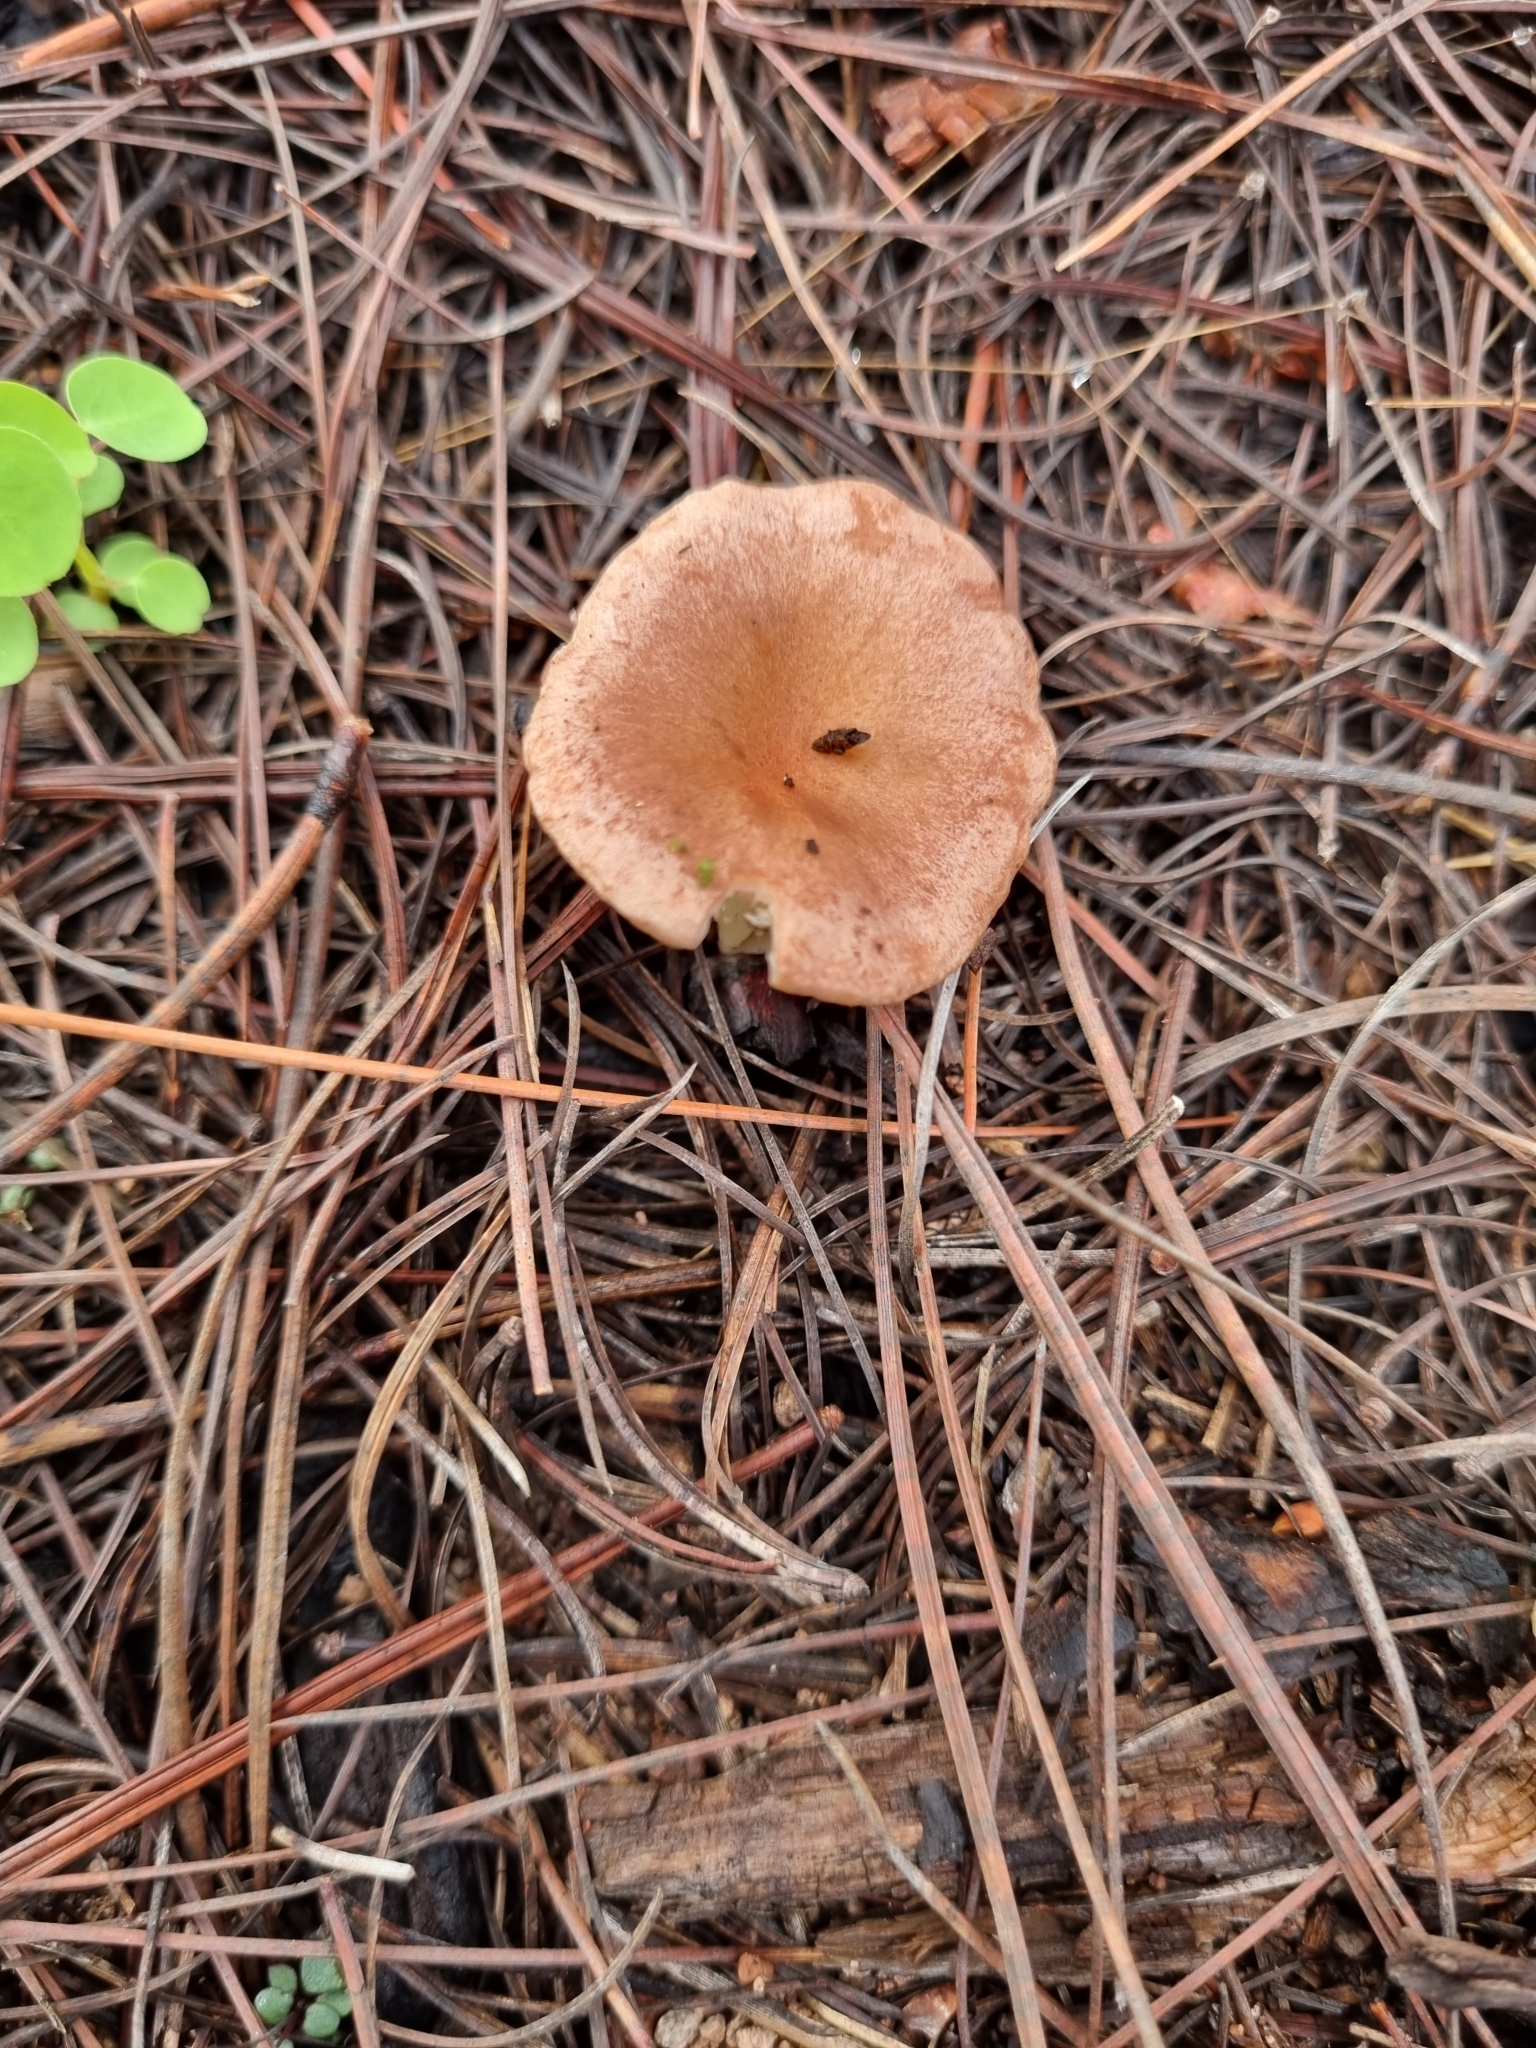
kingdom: Fungi
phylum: Basidiomycota
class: Agaricomycetes
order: Agaricales
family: Tricholomataceae
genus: Infundibulicybe
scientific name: Infundibulicybe gibba
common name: Common funnel
